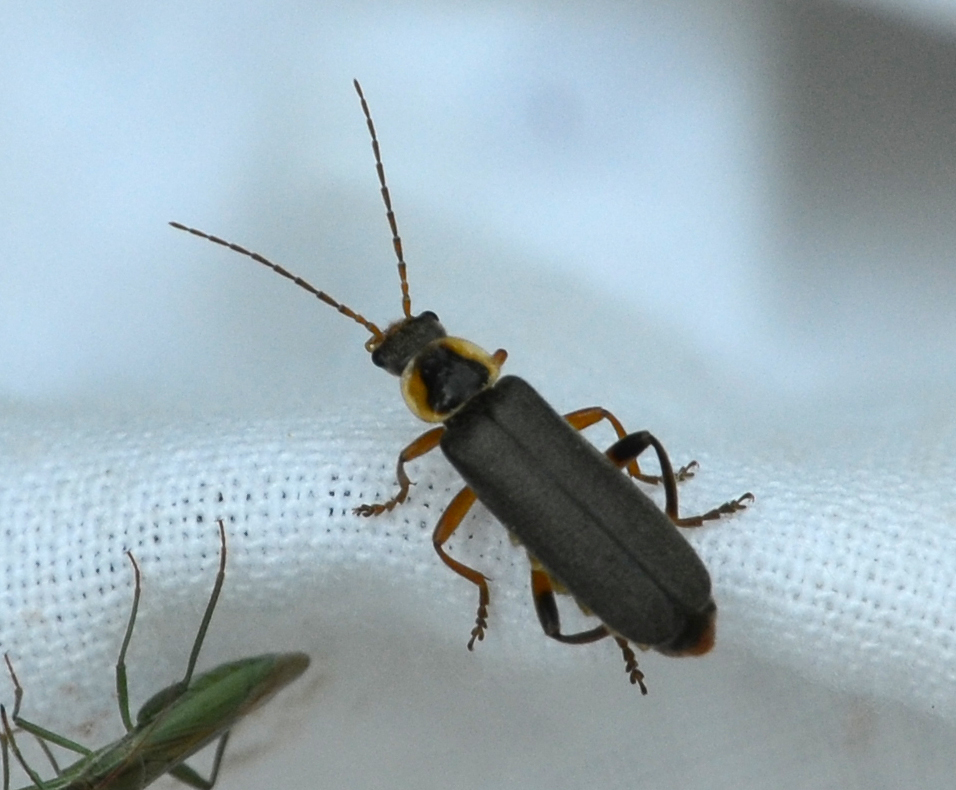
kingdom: Animalia
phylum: Arthropoda
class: Insecta
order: Coleoptera
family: Cantharidae
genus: Cantharis
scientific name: Cantharis nigricans
